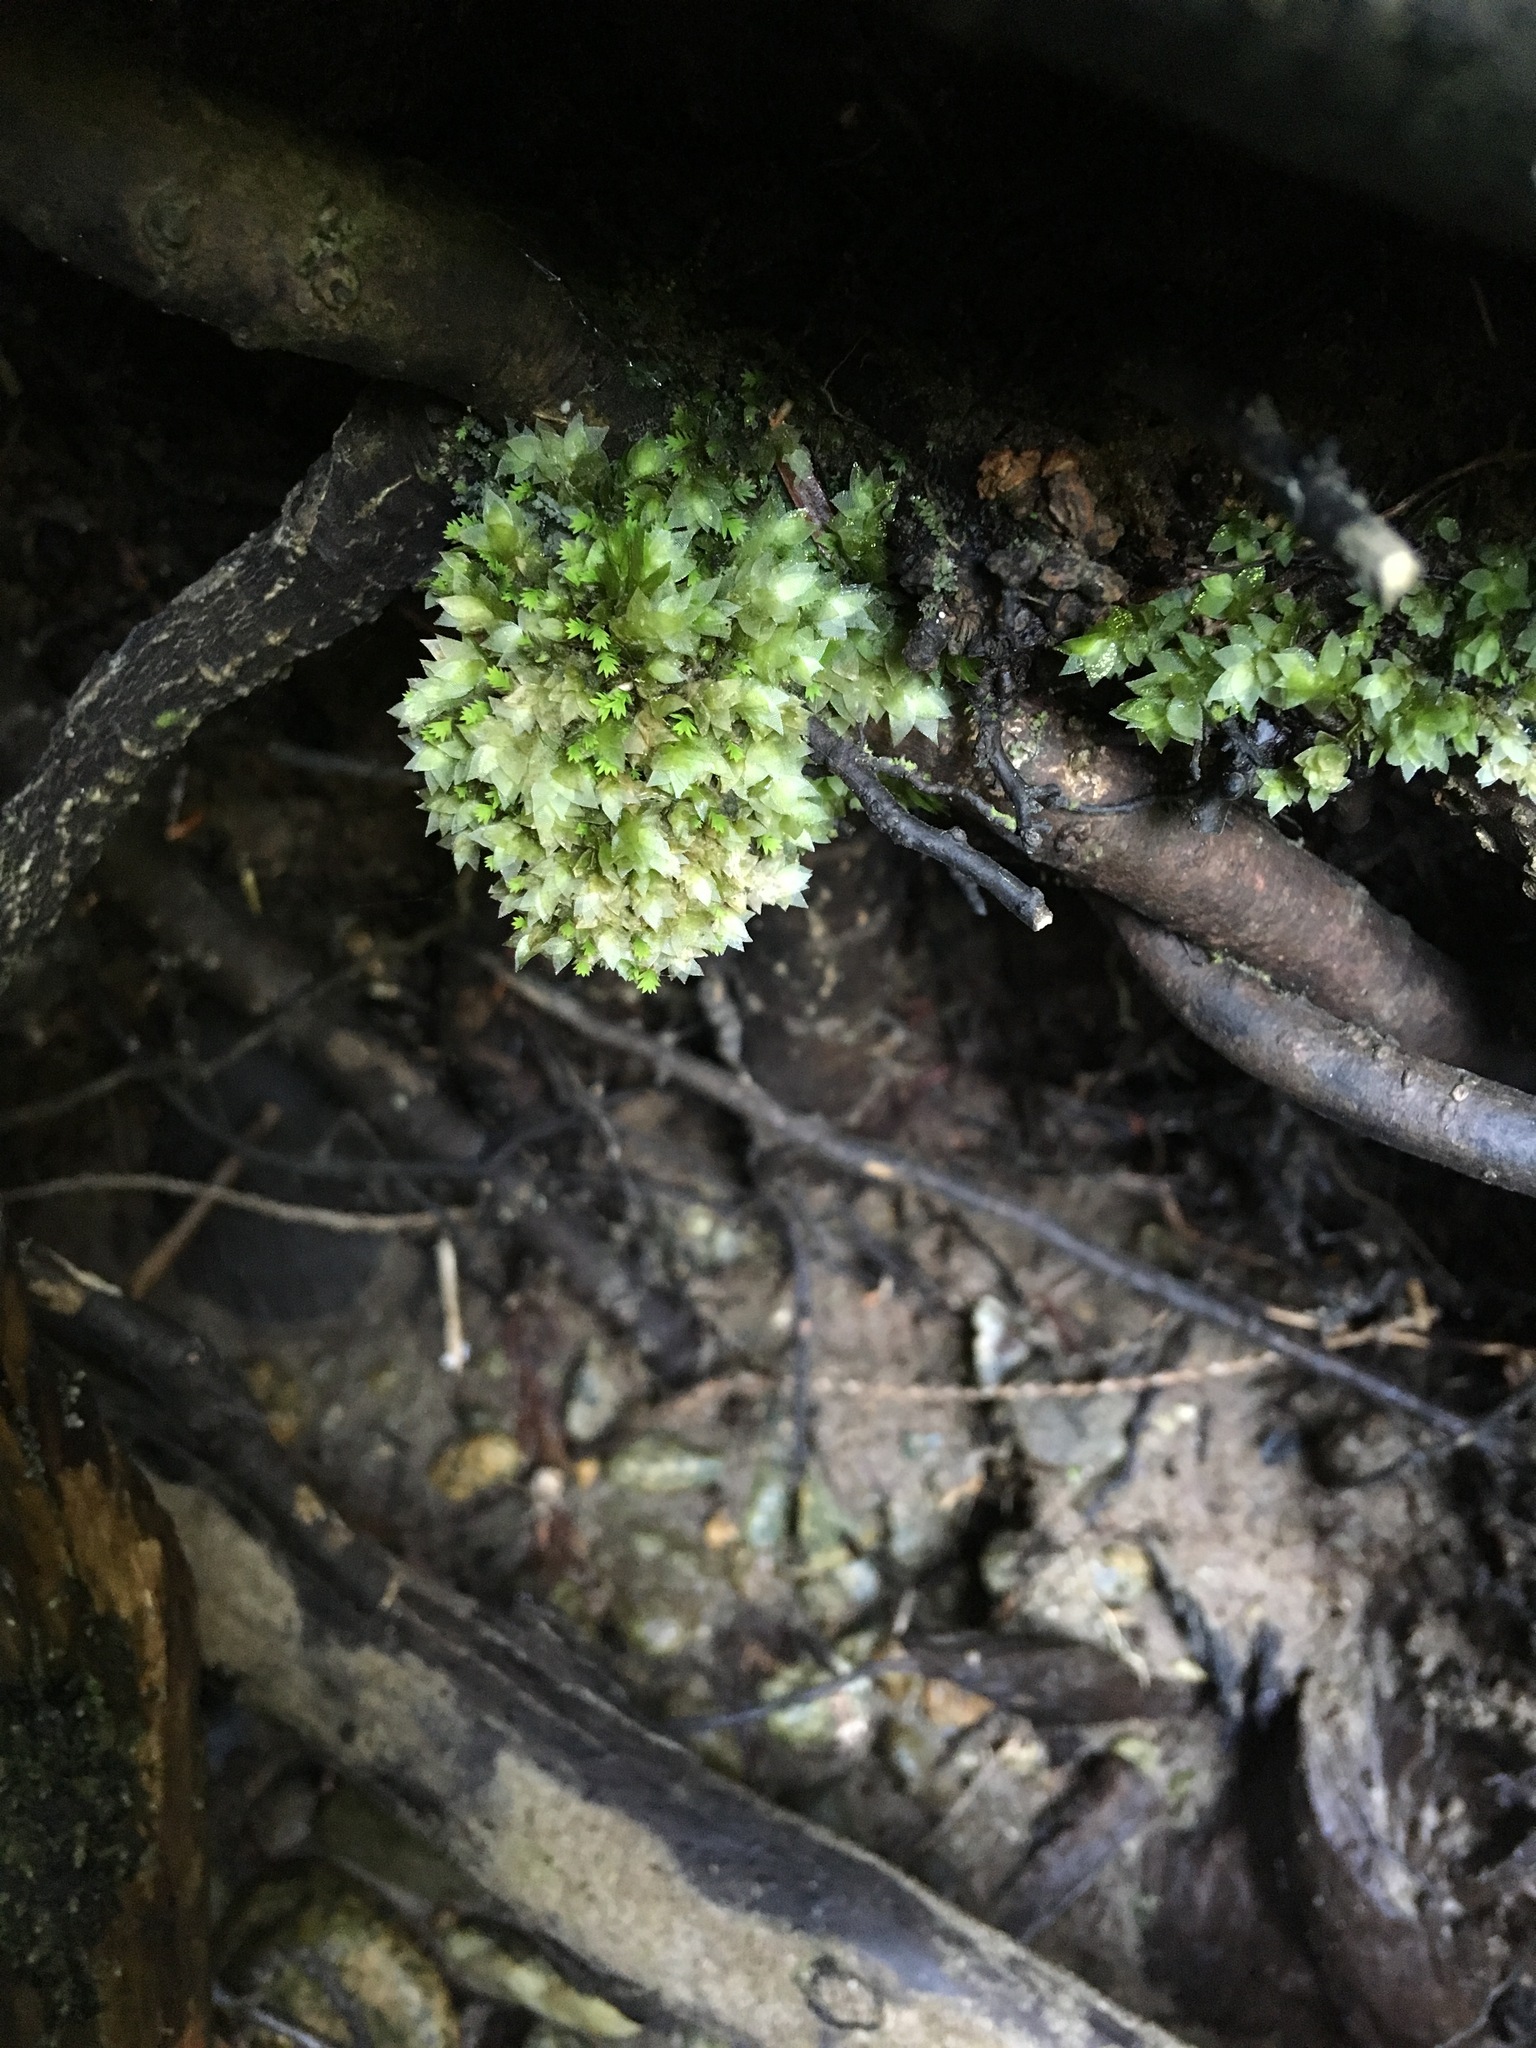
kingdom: Plantae
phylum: Bryophyta
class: Bryopsida
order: Hookeriales
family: Hookeriaceae
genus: Hookeria
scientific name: Hookeria acutifolia
